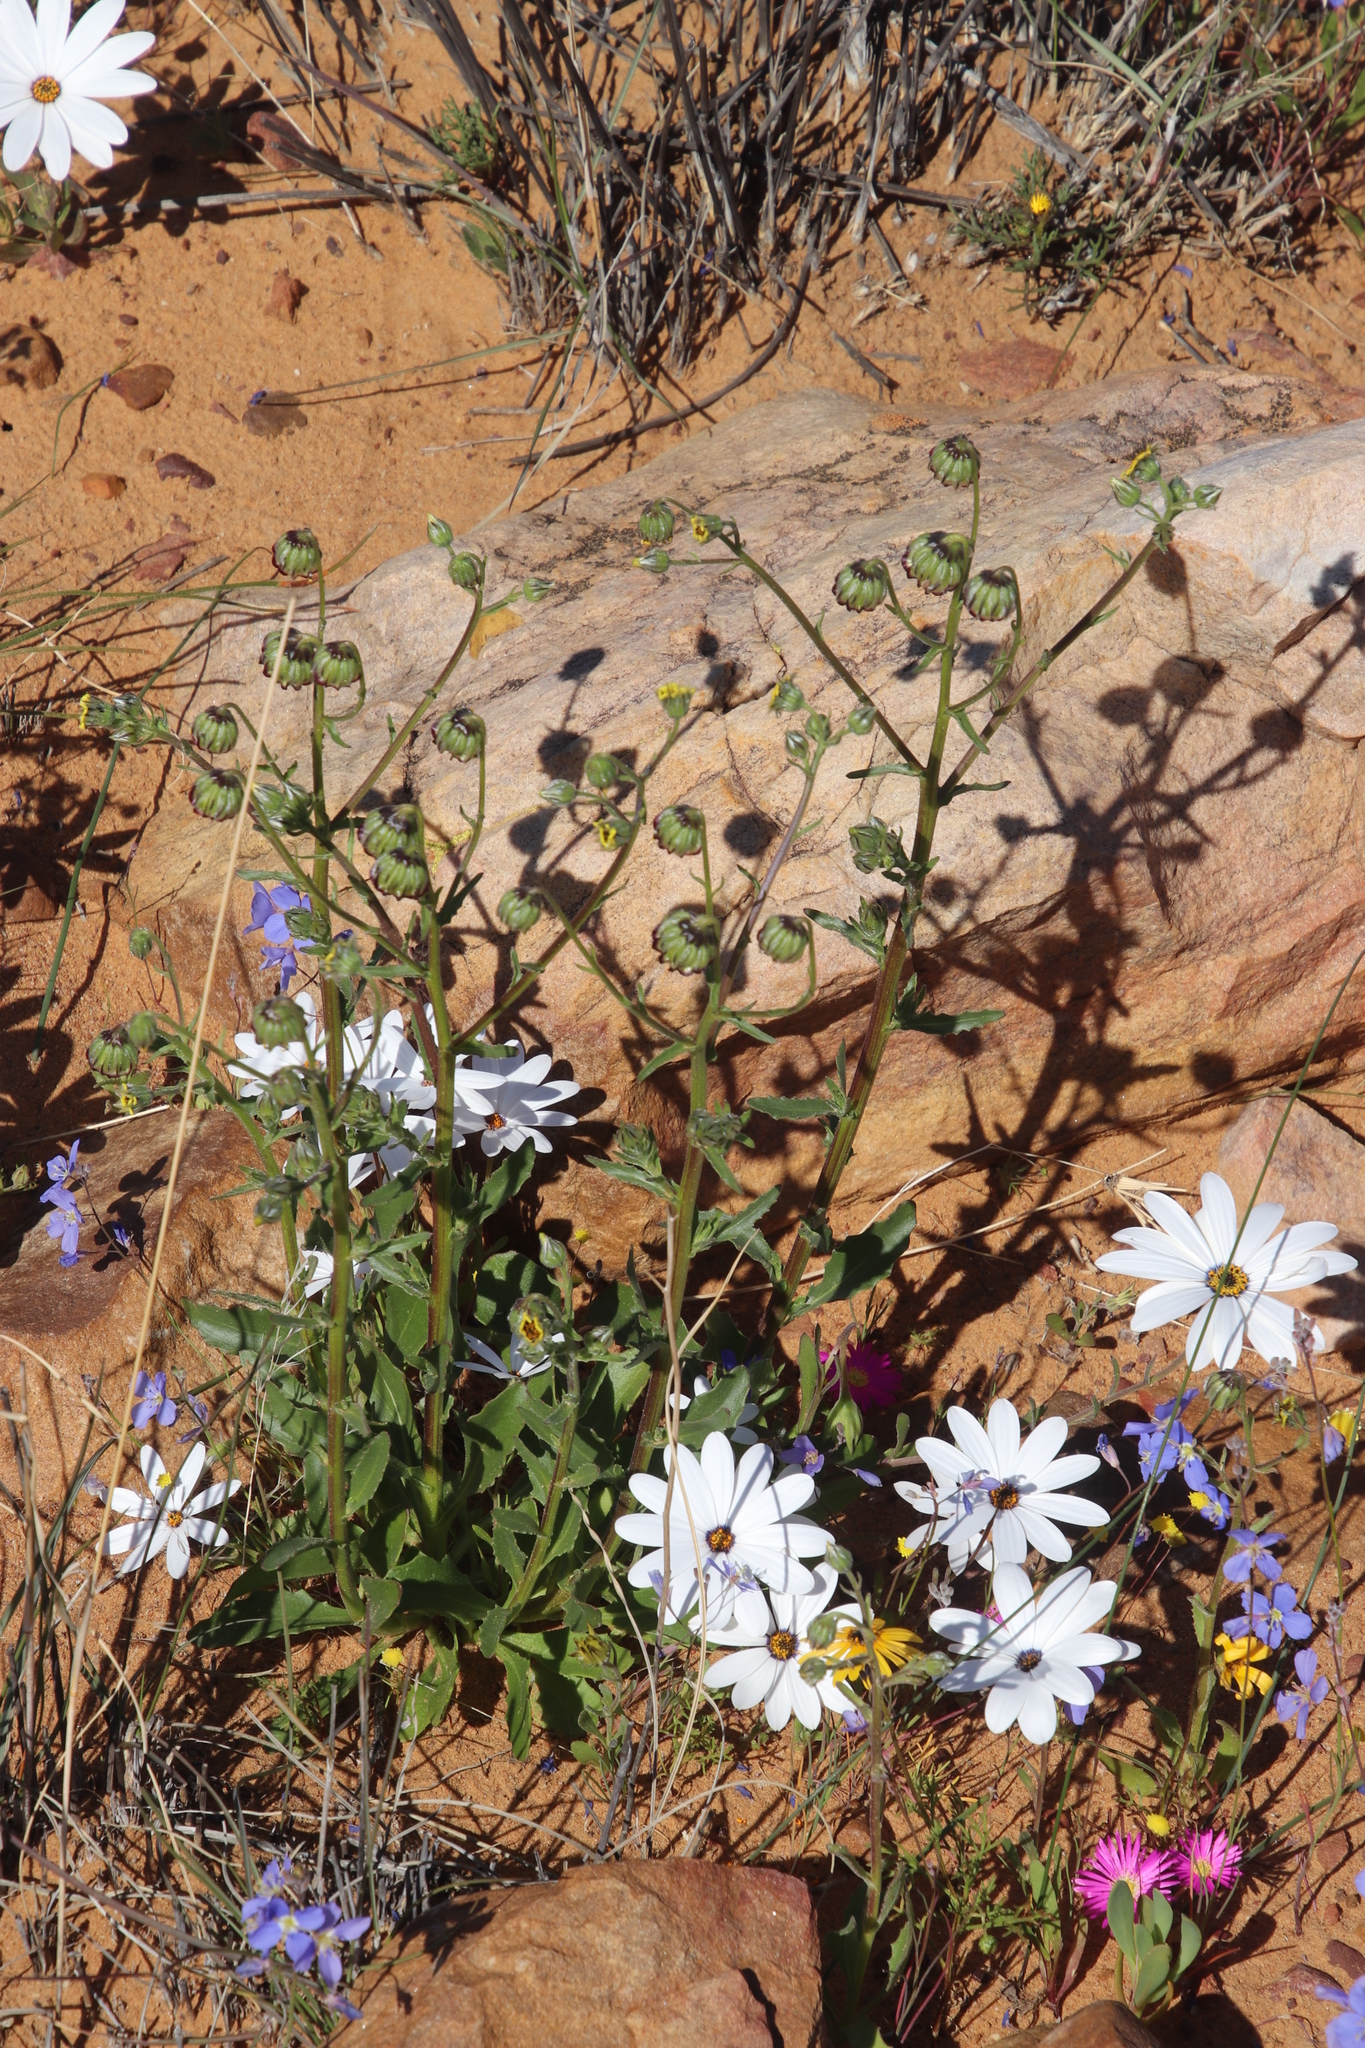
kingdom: Plantae
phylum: Tracheophyta
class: Magnoliopsida
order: Asterales
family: Asteraceae
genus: Osteospermum
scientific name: Osteospermum monstrosum
